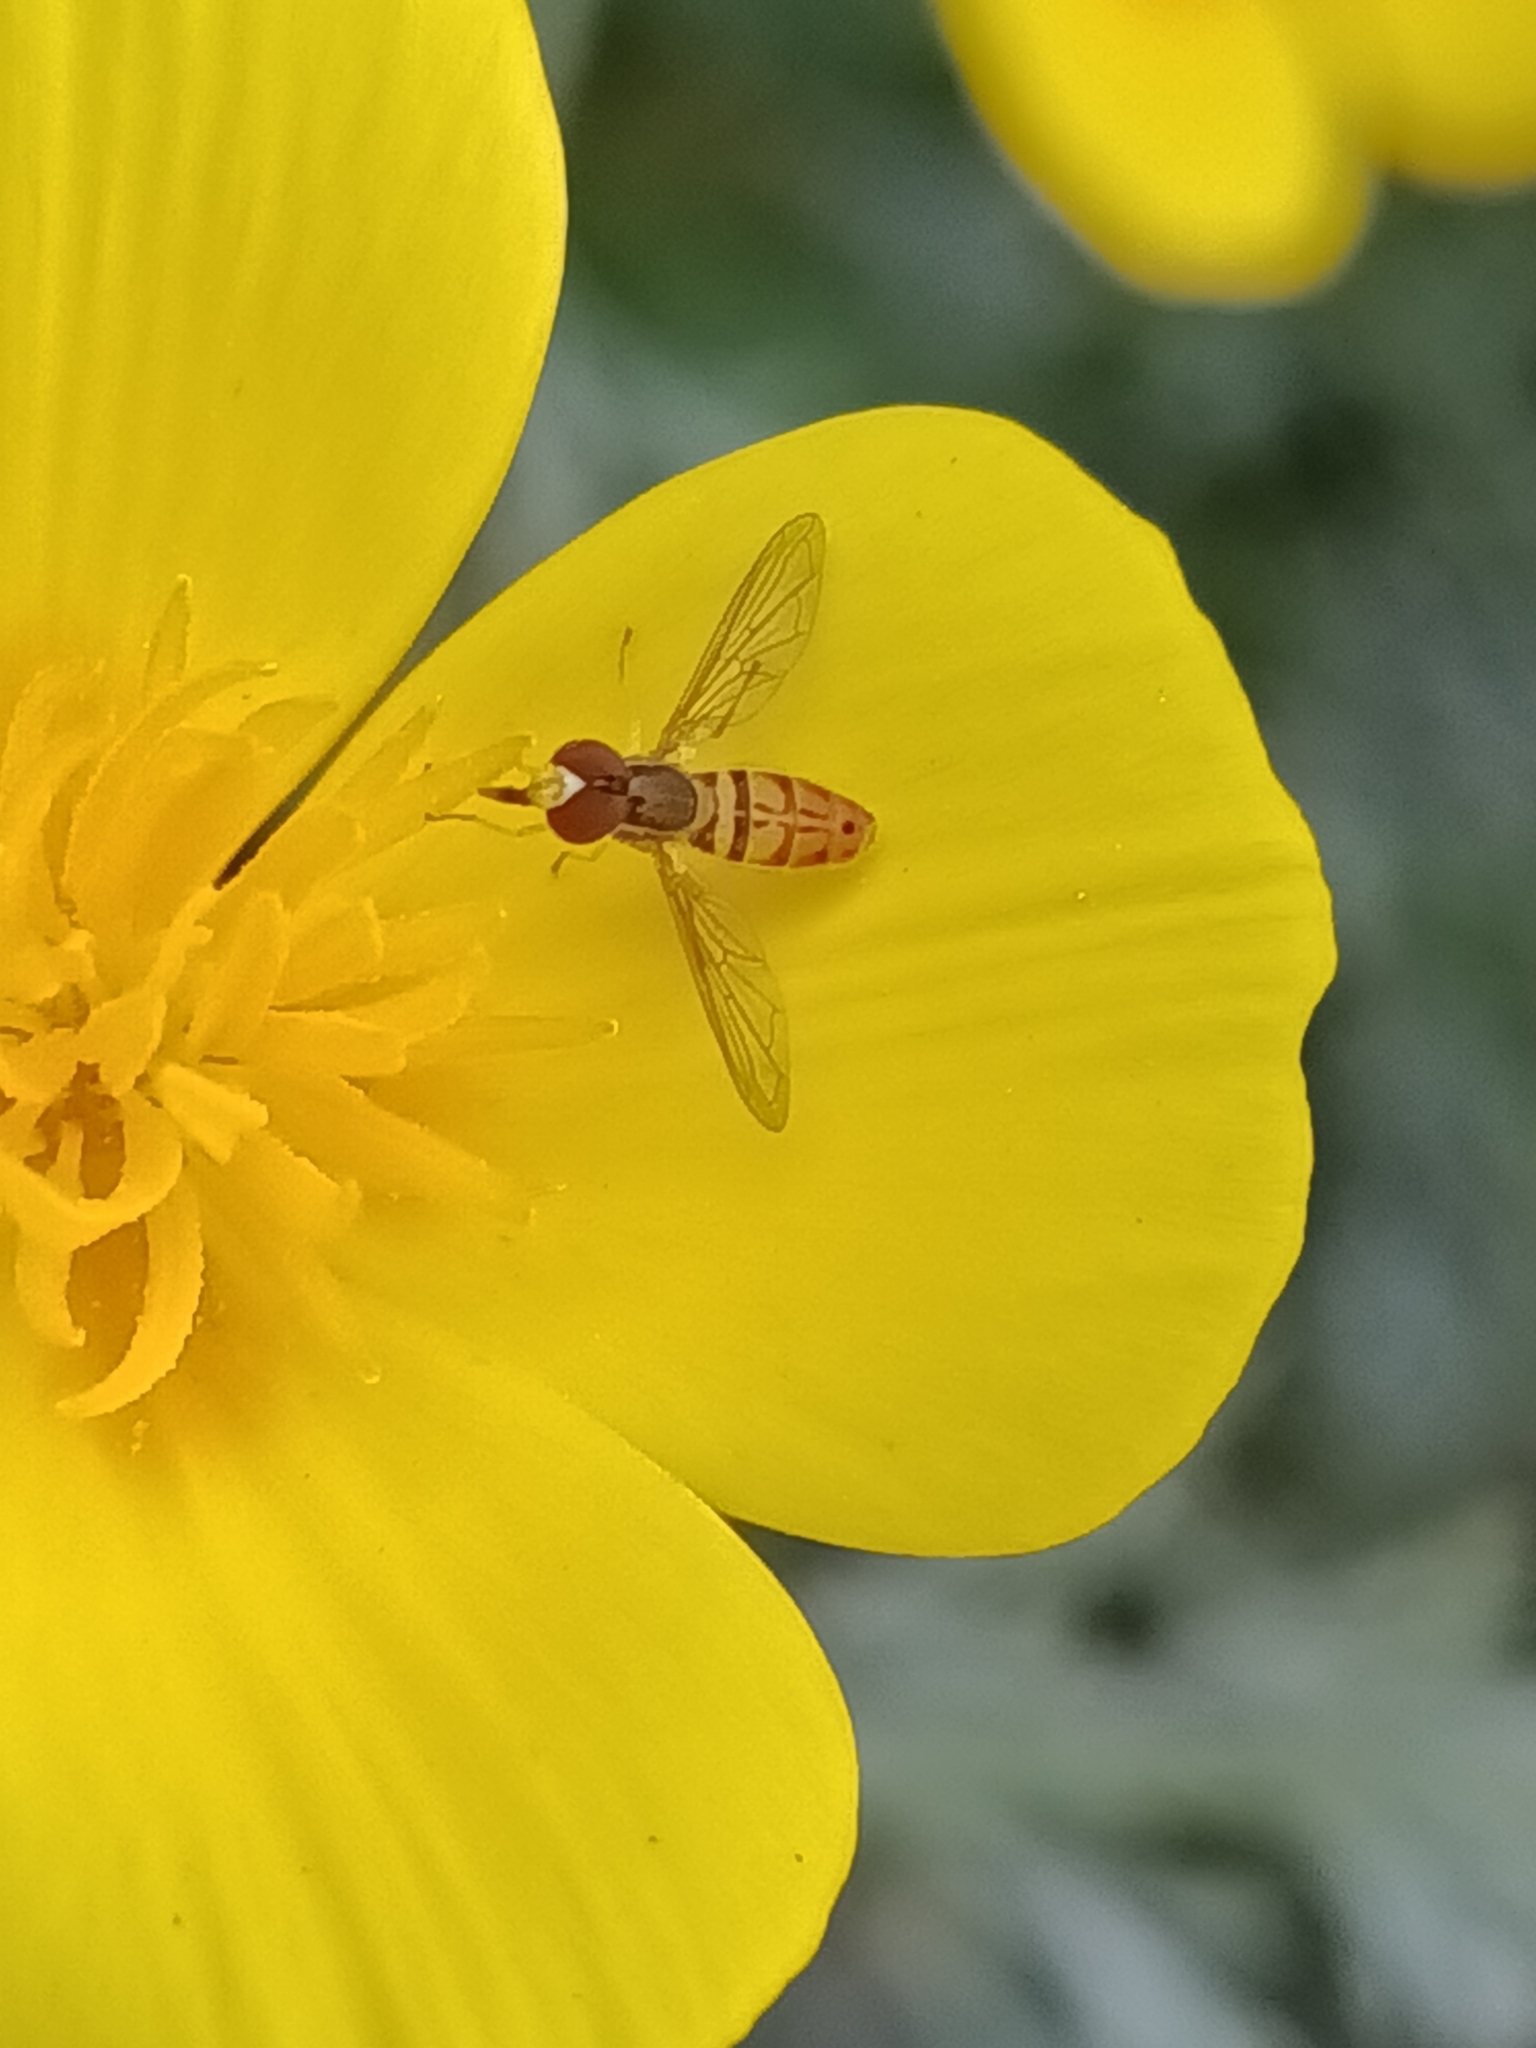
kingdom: Animalia
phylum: Arthropoda
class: Insecta
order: Diptera
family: Syrphidae
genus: Toxomerus
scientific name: Toxomerus marginatus
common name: Syrphid fly
